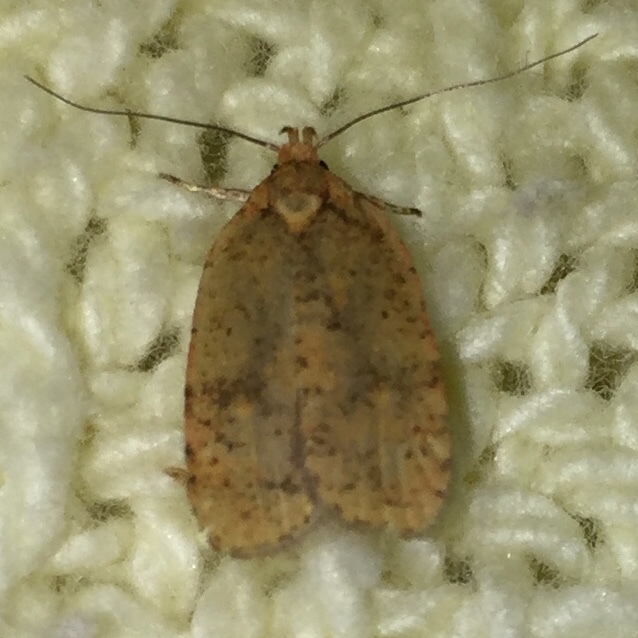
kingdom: Animalia
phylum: Arthropoda
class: Insecta
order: Lepidoptera
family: Depressariidae
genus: Agonopterix
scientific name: Agonopterix robiniella
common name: Four-dotted agonopterix moth
